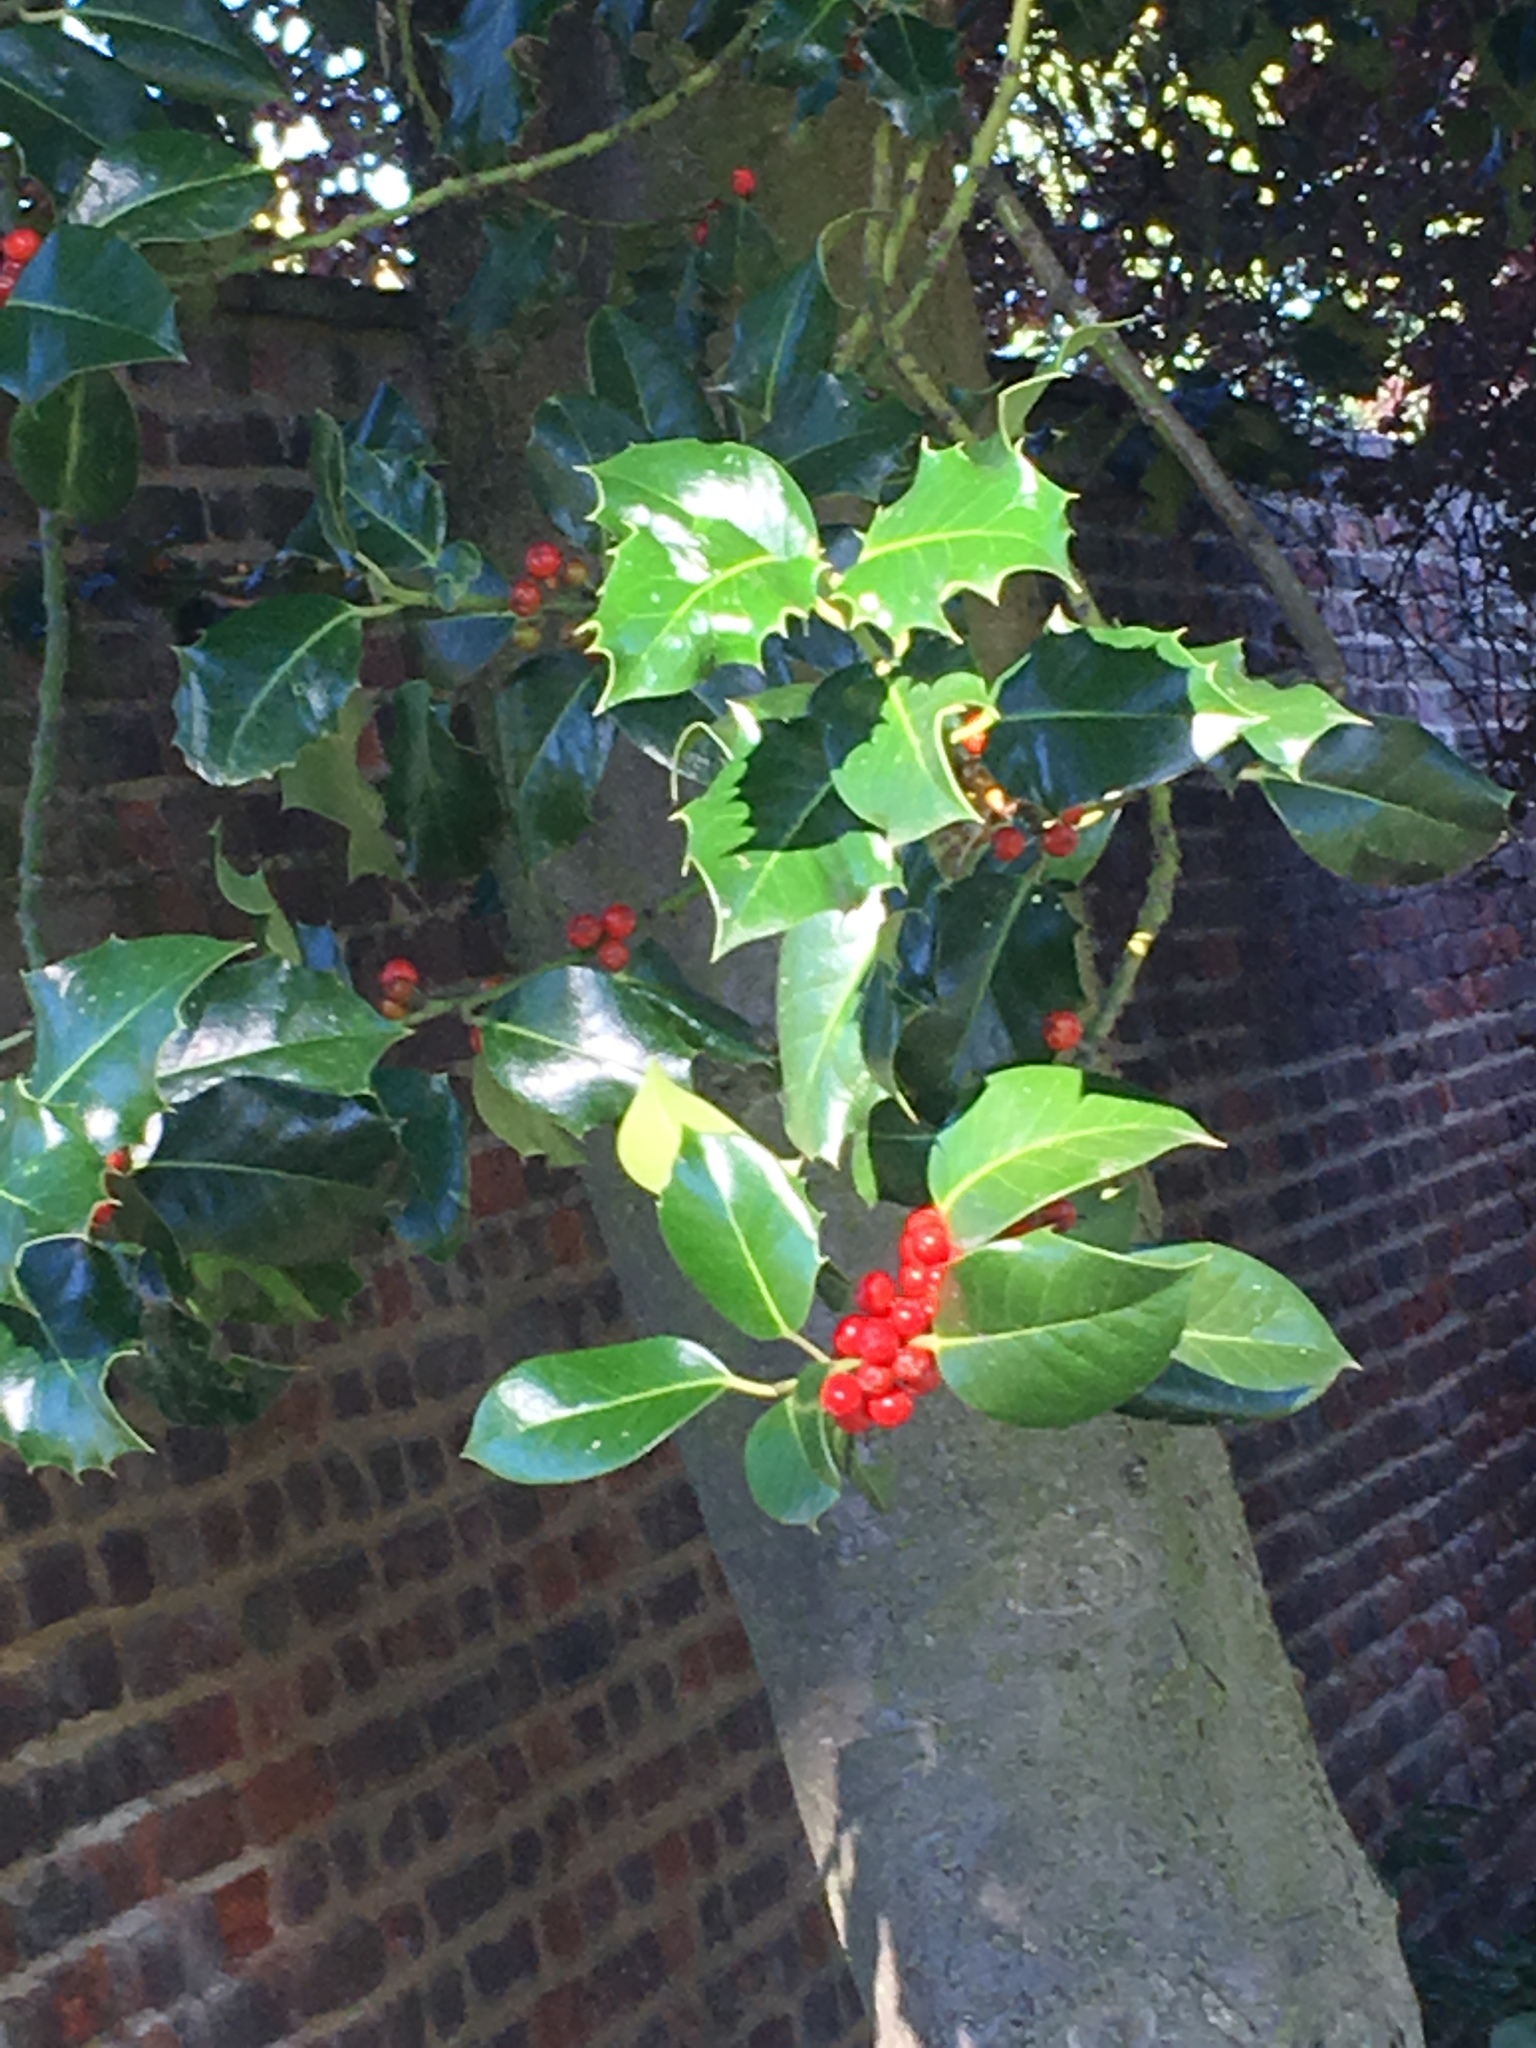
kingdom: Plantae
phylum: Tracheophyta
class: Magnoliopsida
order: Aquifoliales
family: Aquifoliaceae
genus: Ilex
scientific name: Ilex aquifolium
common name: English holly
